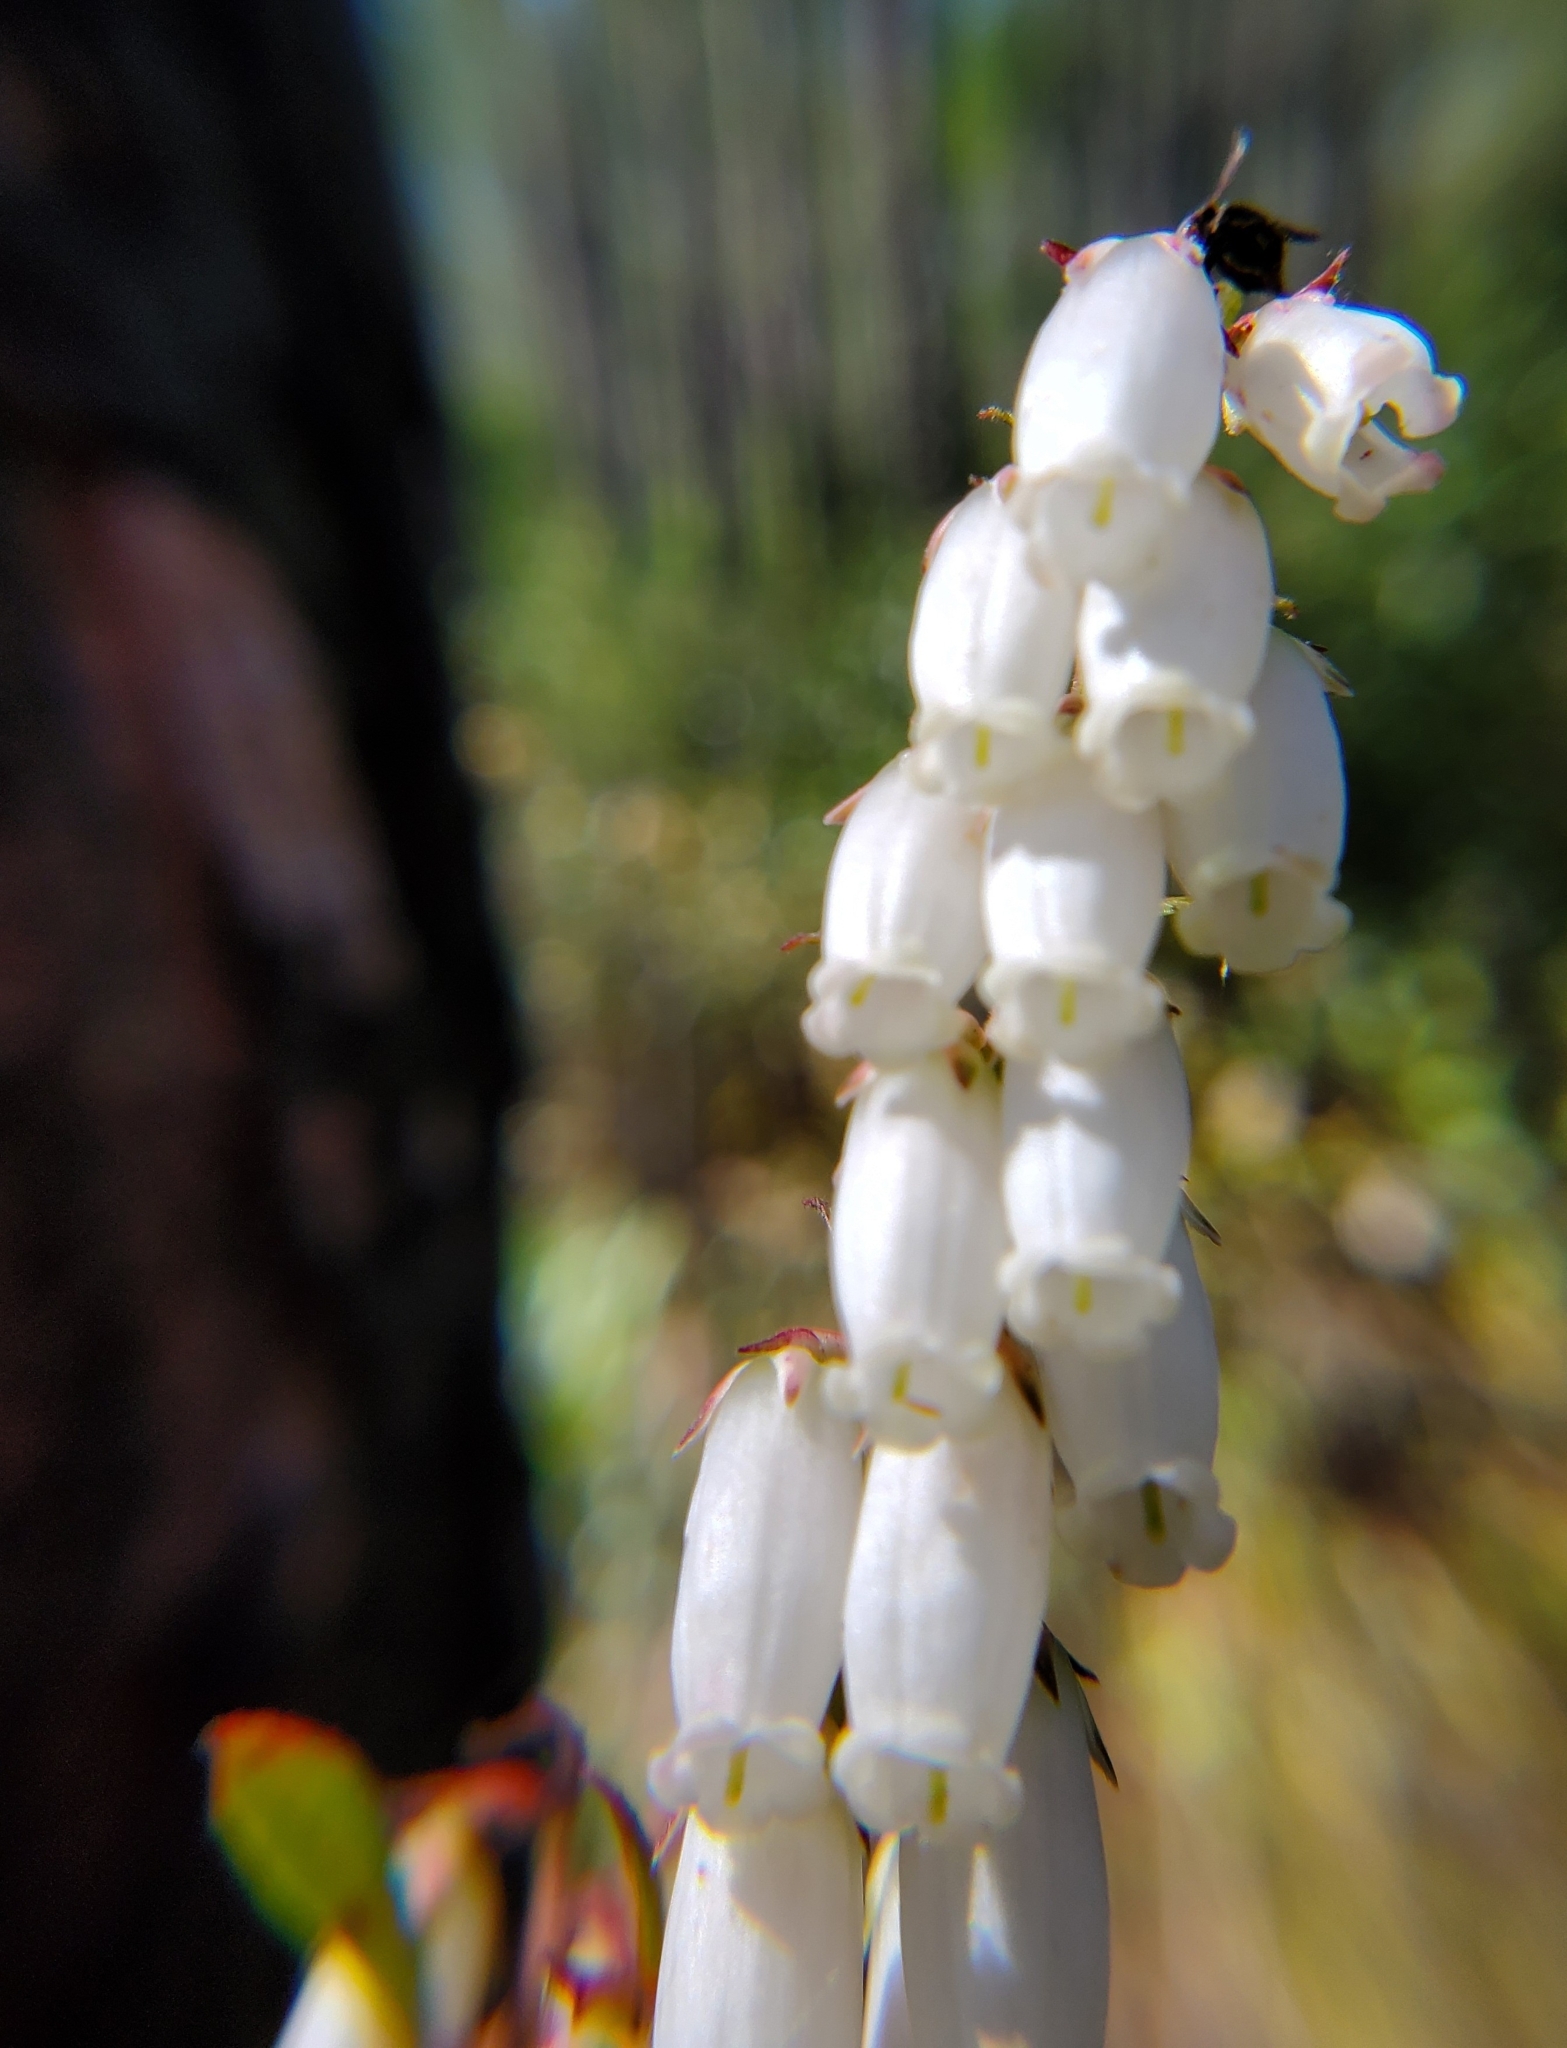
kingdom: Plantae
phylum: Tracheophyta
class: Magnoliopsida
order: Ericales
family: Ericaceae
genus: Eubotrys
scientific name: Eubotrys racemosa
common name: Fetterbush
